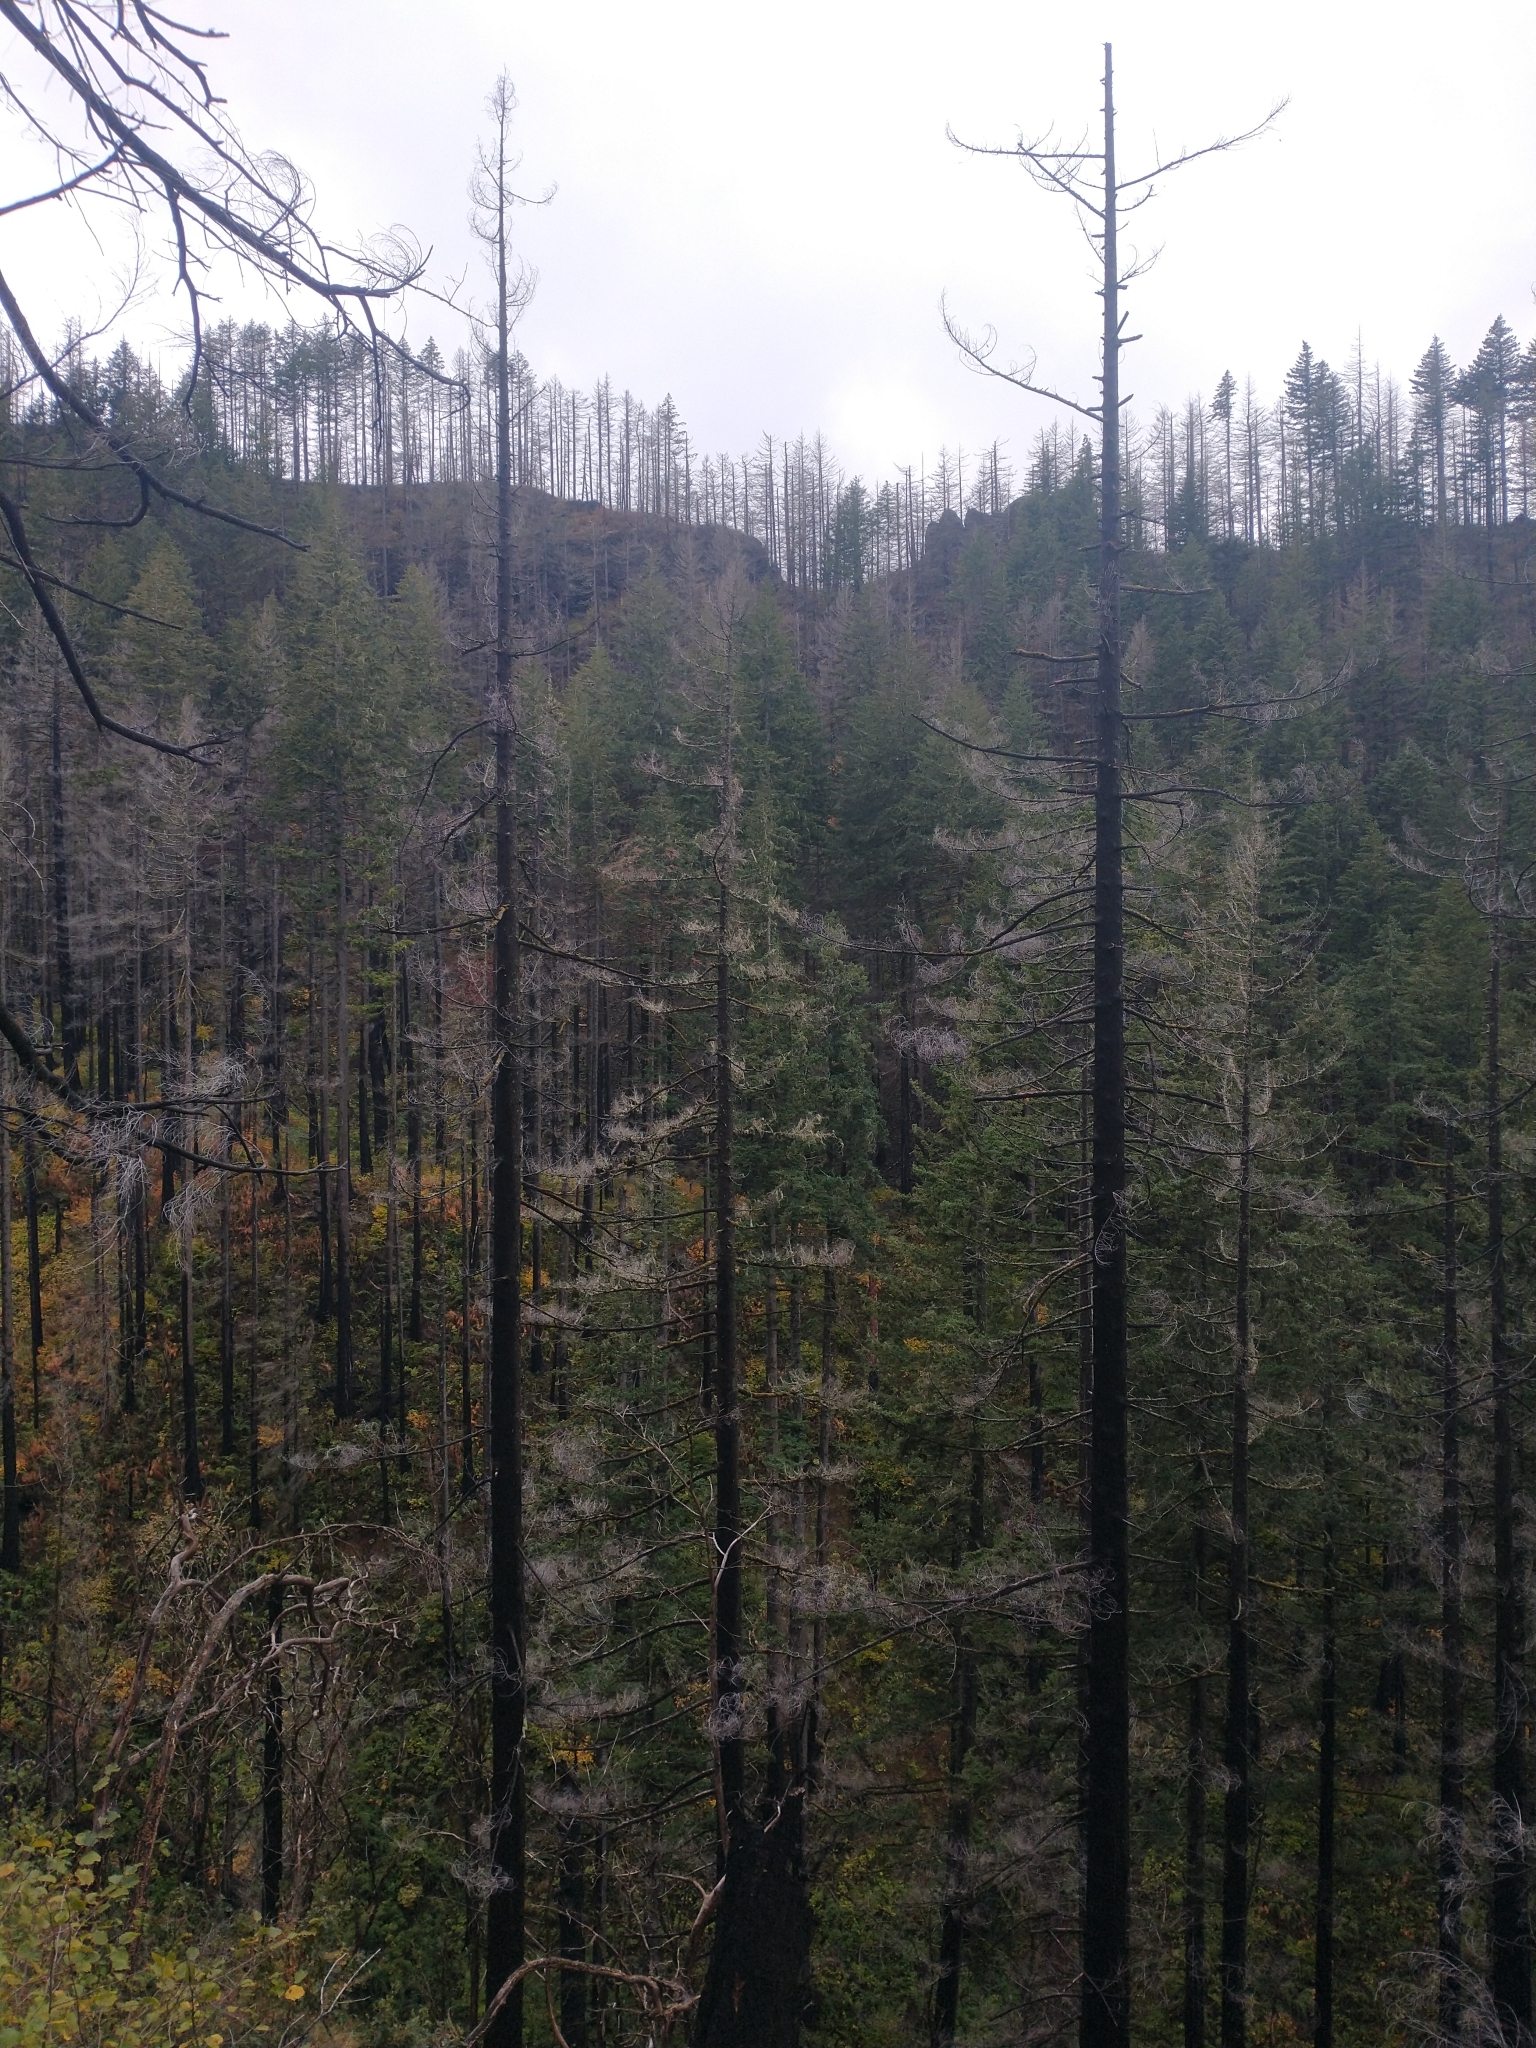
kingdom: Plantae
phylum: Tracheophyta
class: Pinopsida
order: Pinales
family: Pinaceae
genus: Pseudotsuga
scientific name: Pseudotsuga menziesii
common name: Douglas fir
